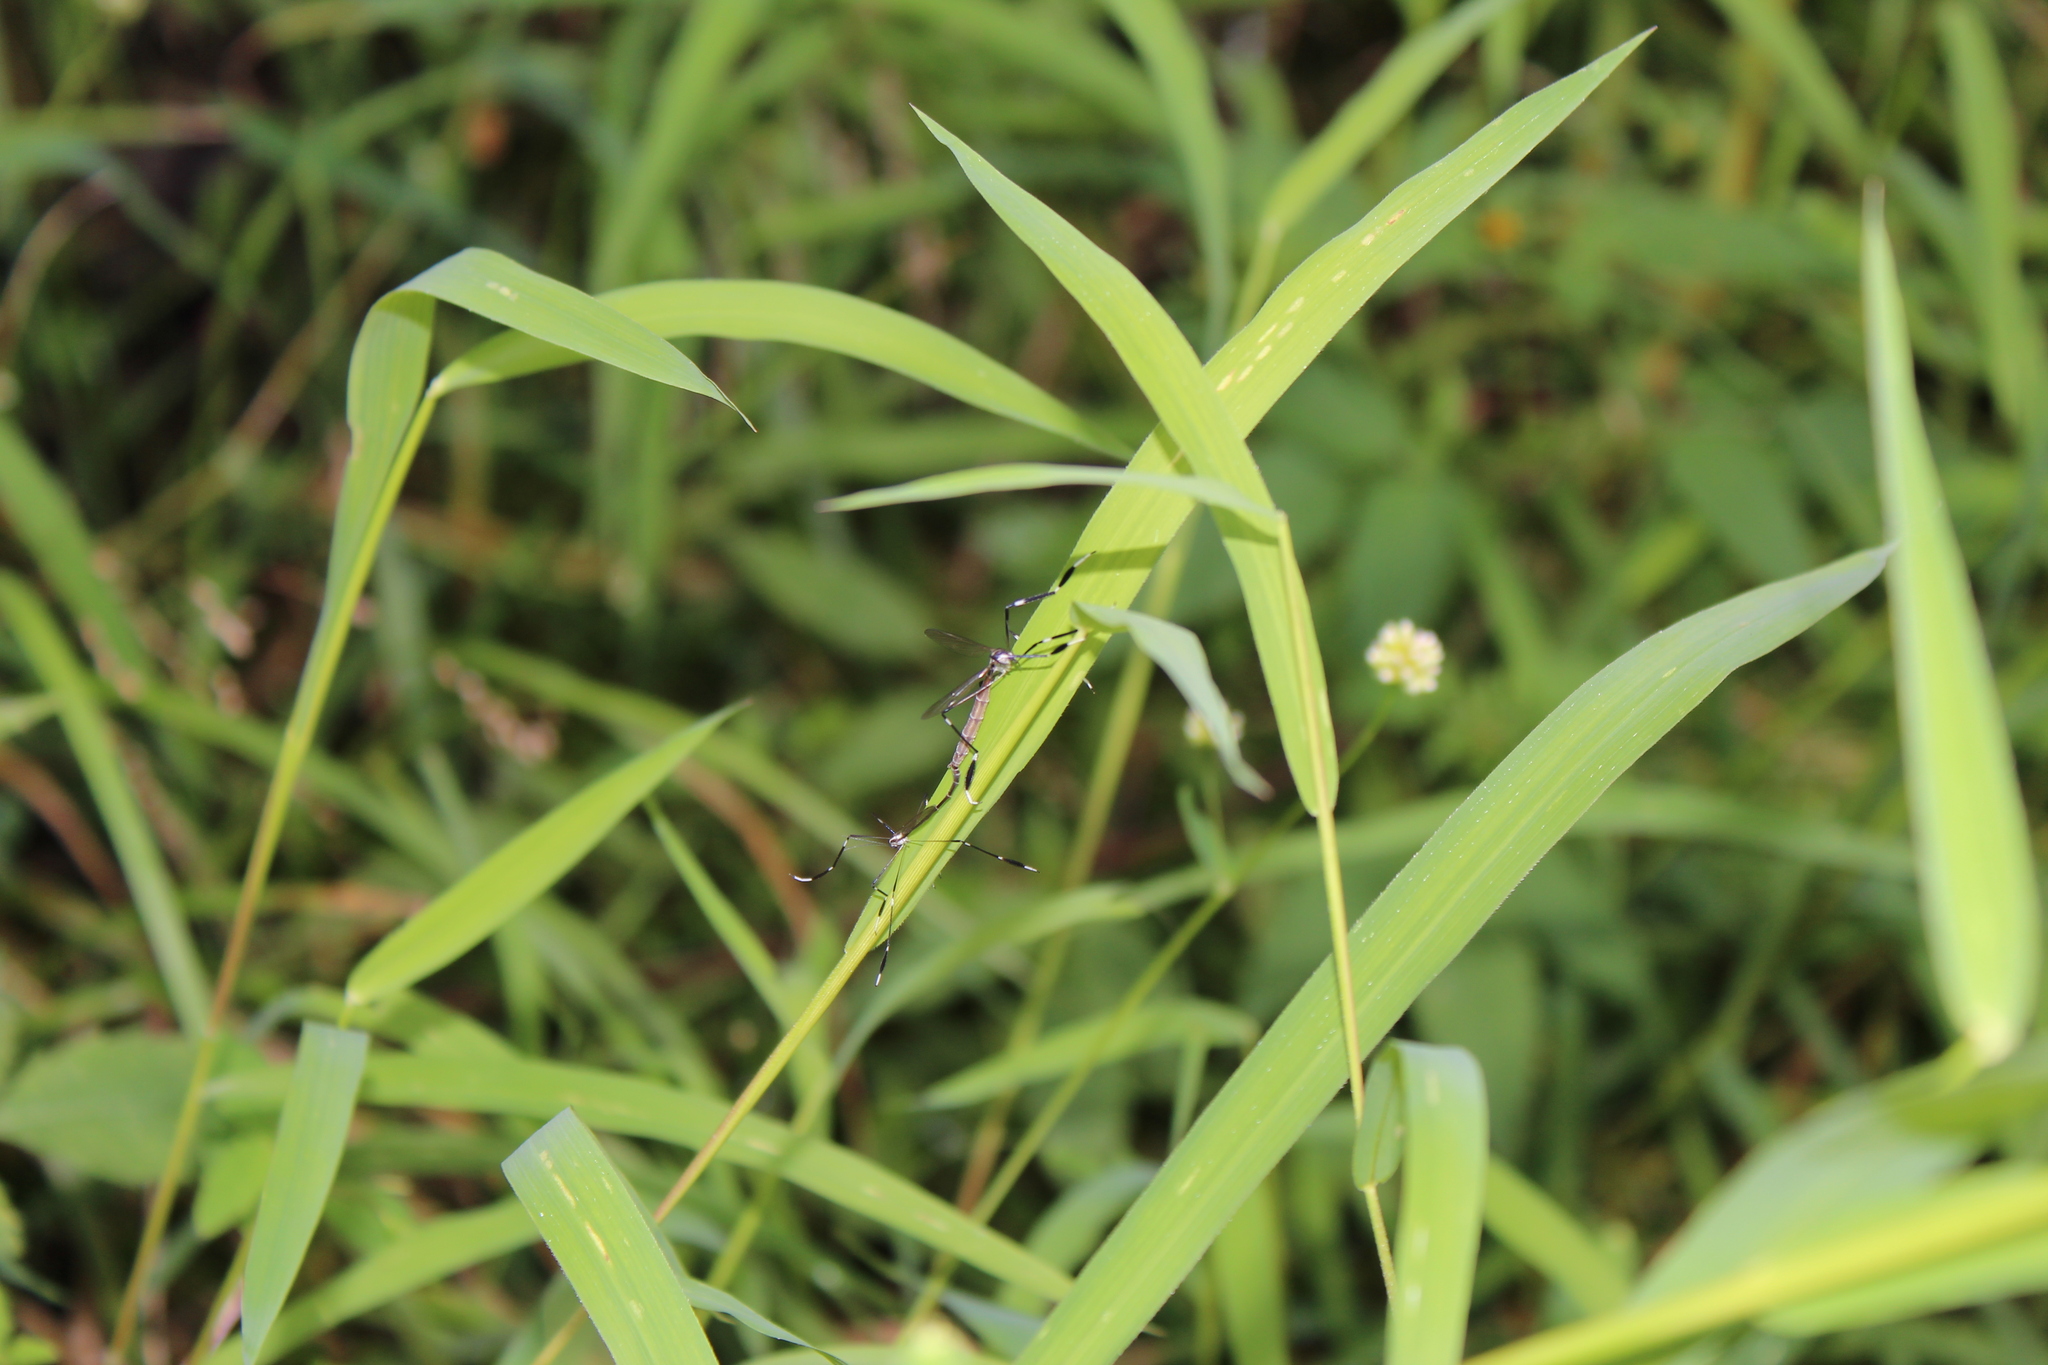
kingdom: Animalia
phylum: Arthropoda
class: Insecta
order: Diptera
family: Ptychopteridae
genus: Bittacomorpha
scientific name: Bittacomorpha clavipes
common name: Eastern phantom crane fly
